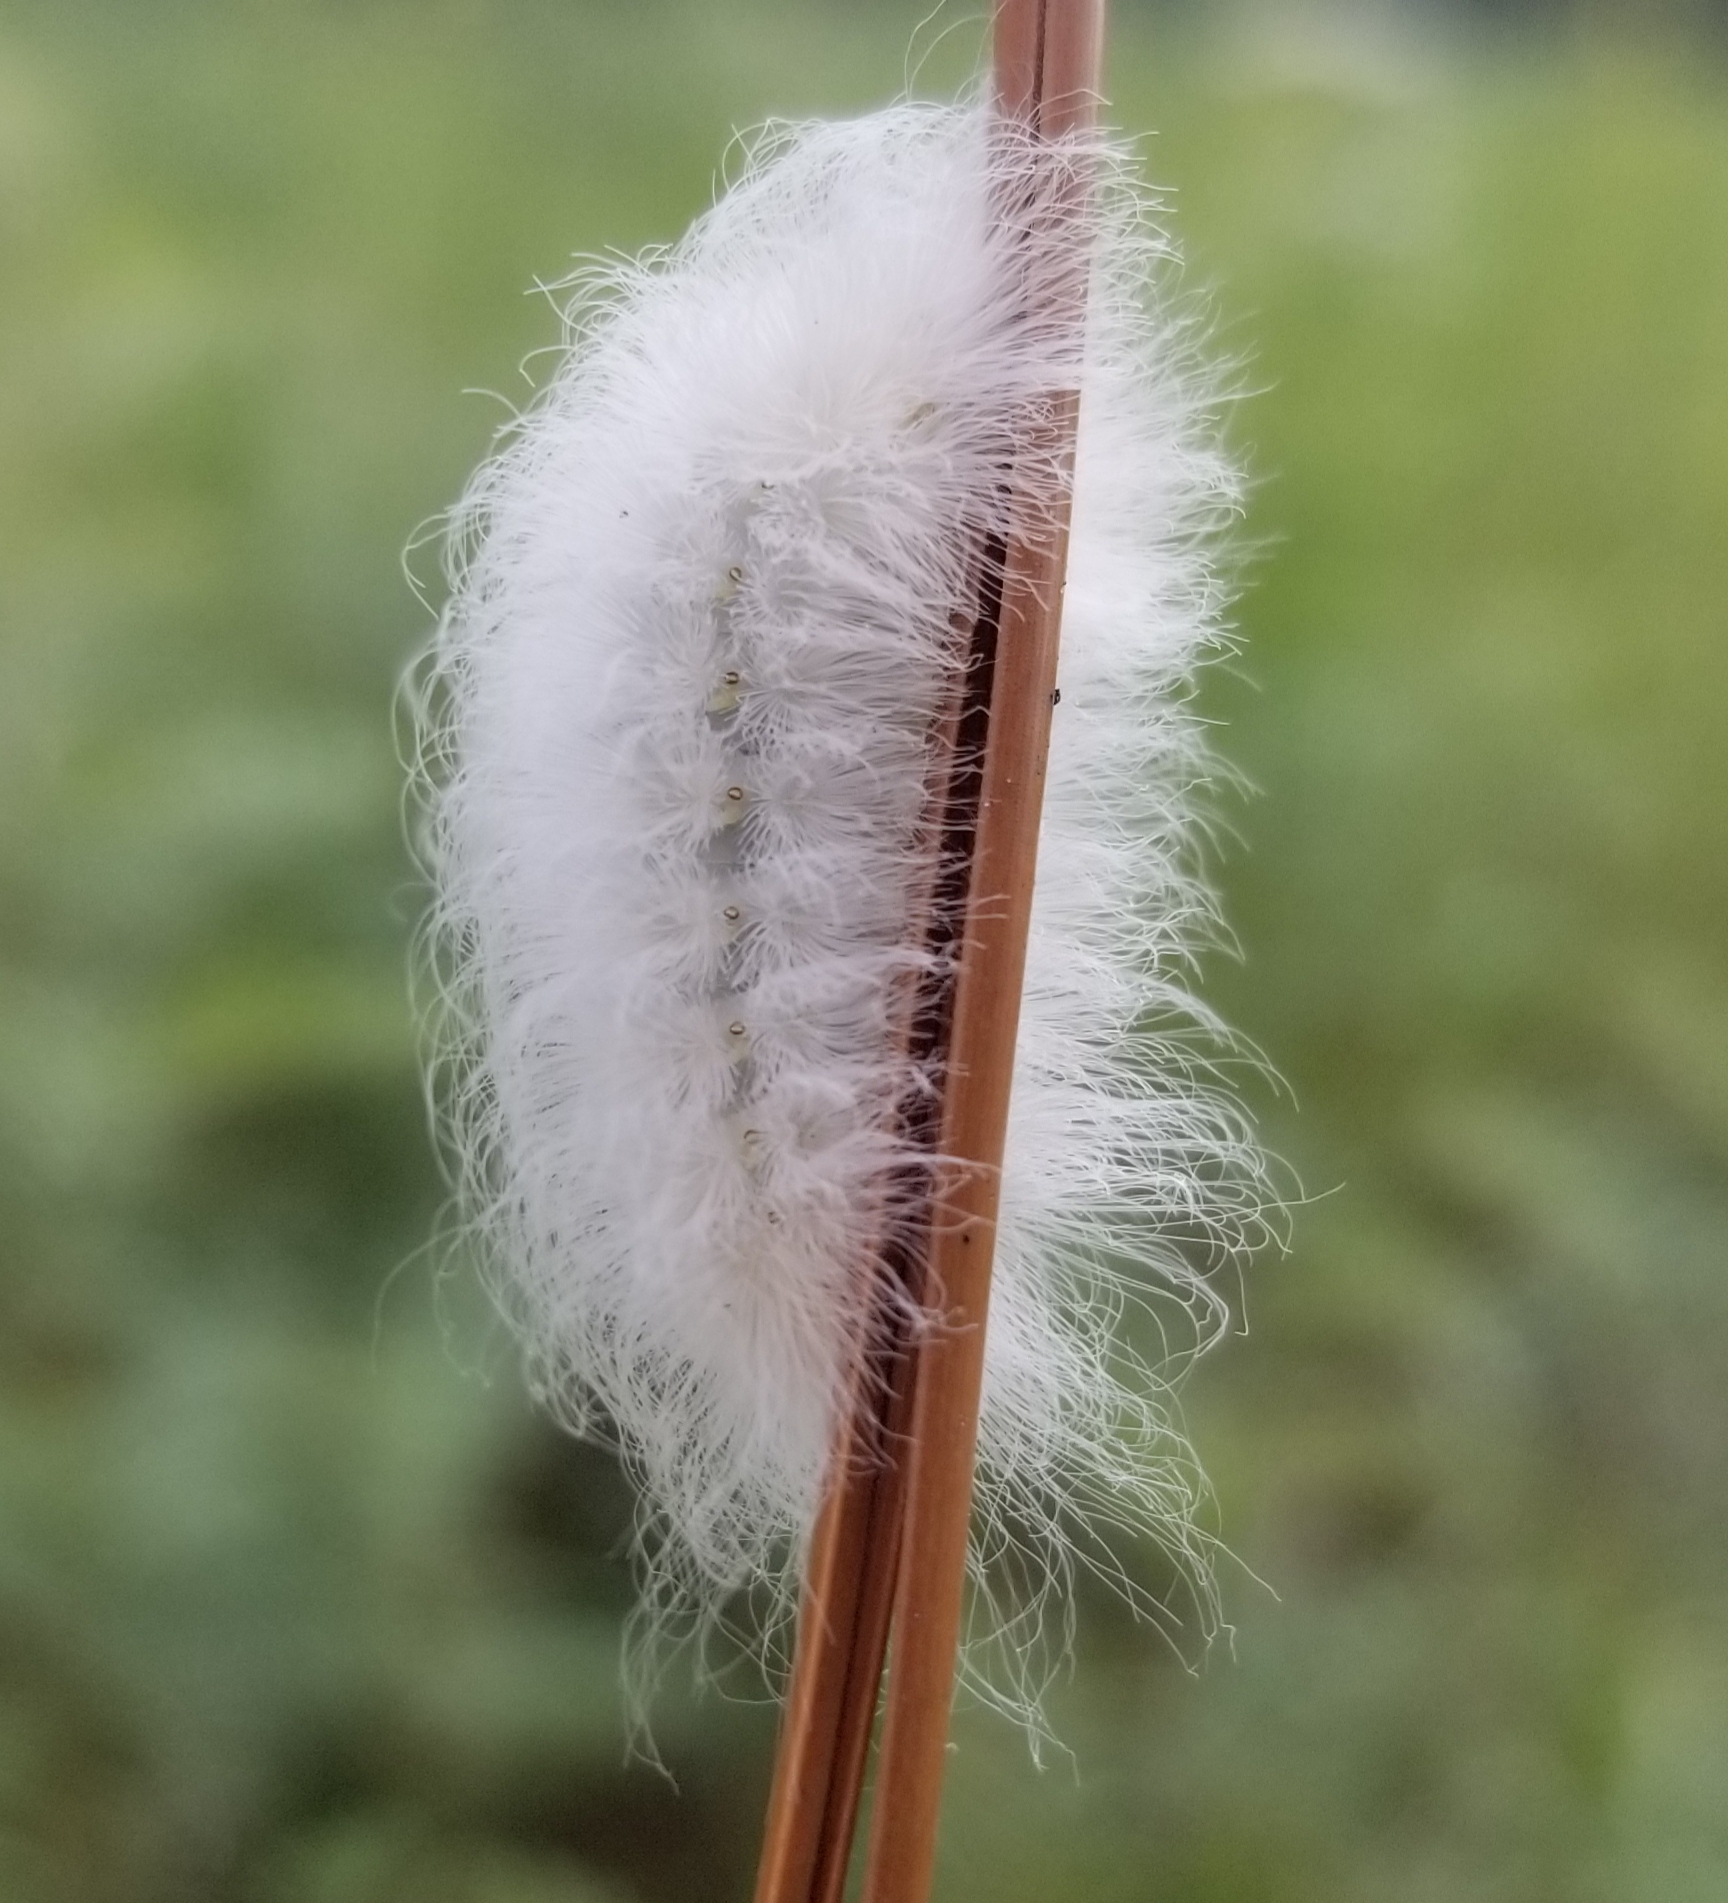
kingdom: Animalia
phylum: Arthropoda
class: Insecta
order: Lepidoptera
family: Megalopygidae
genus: Megalopyge
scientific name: Megalopyge crispata
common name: Black-waved flannel moth
